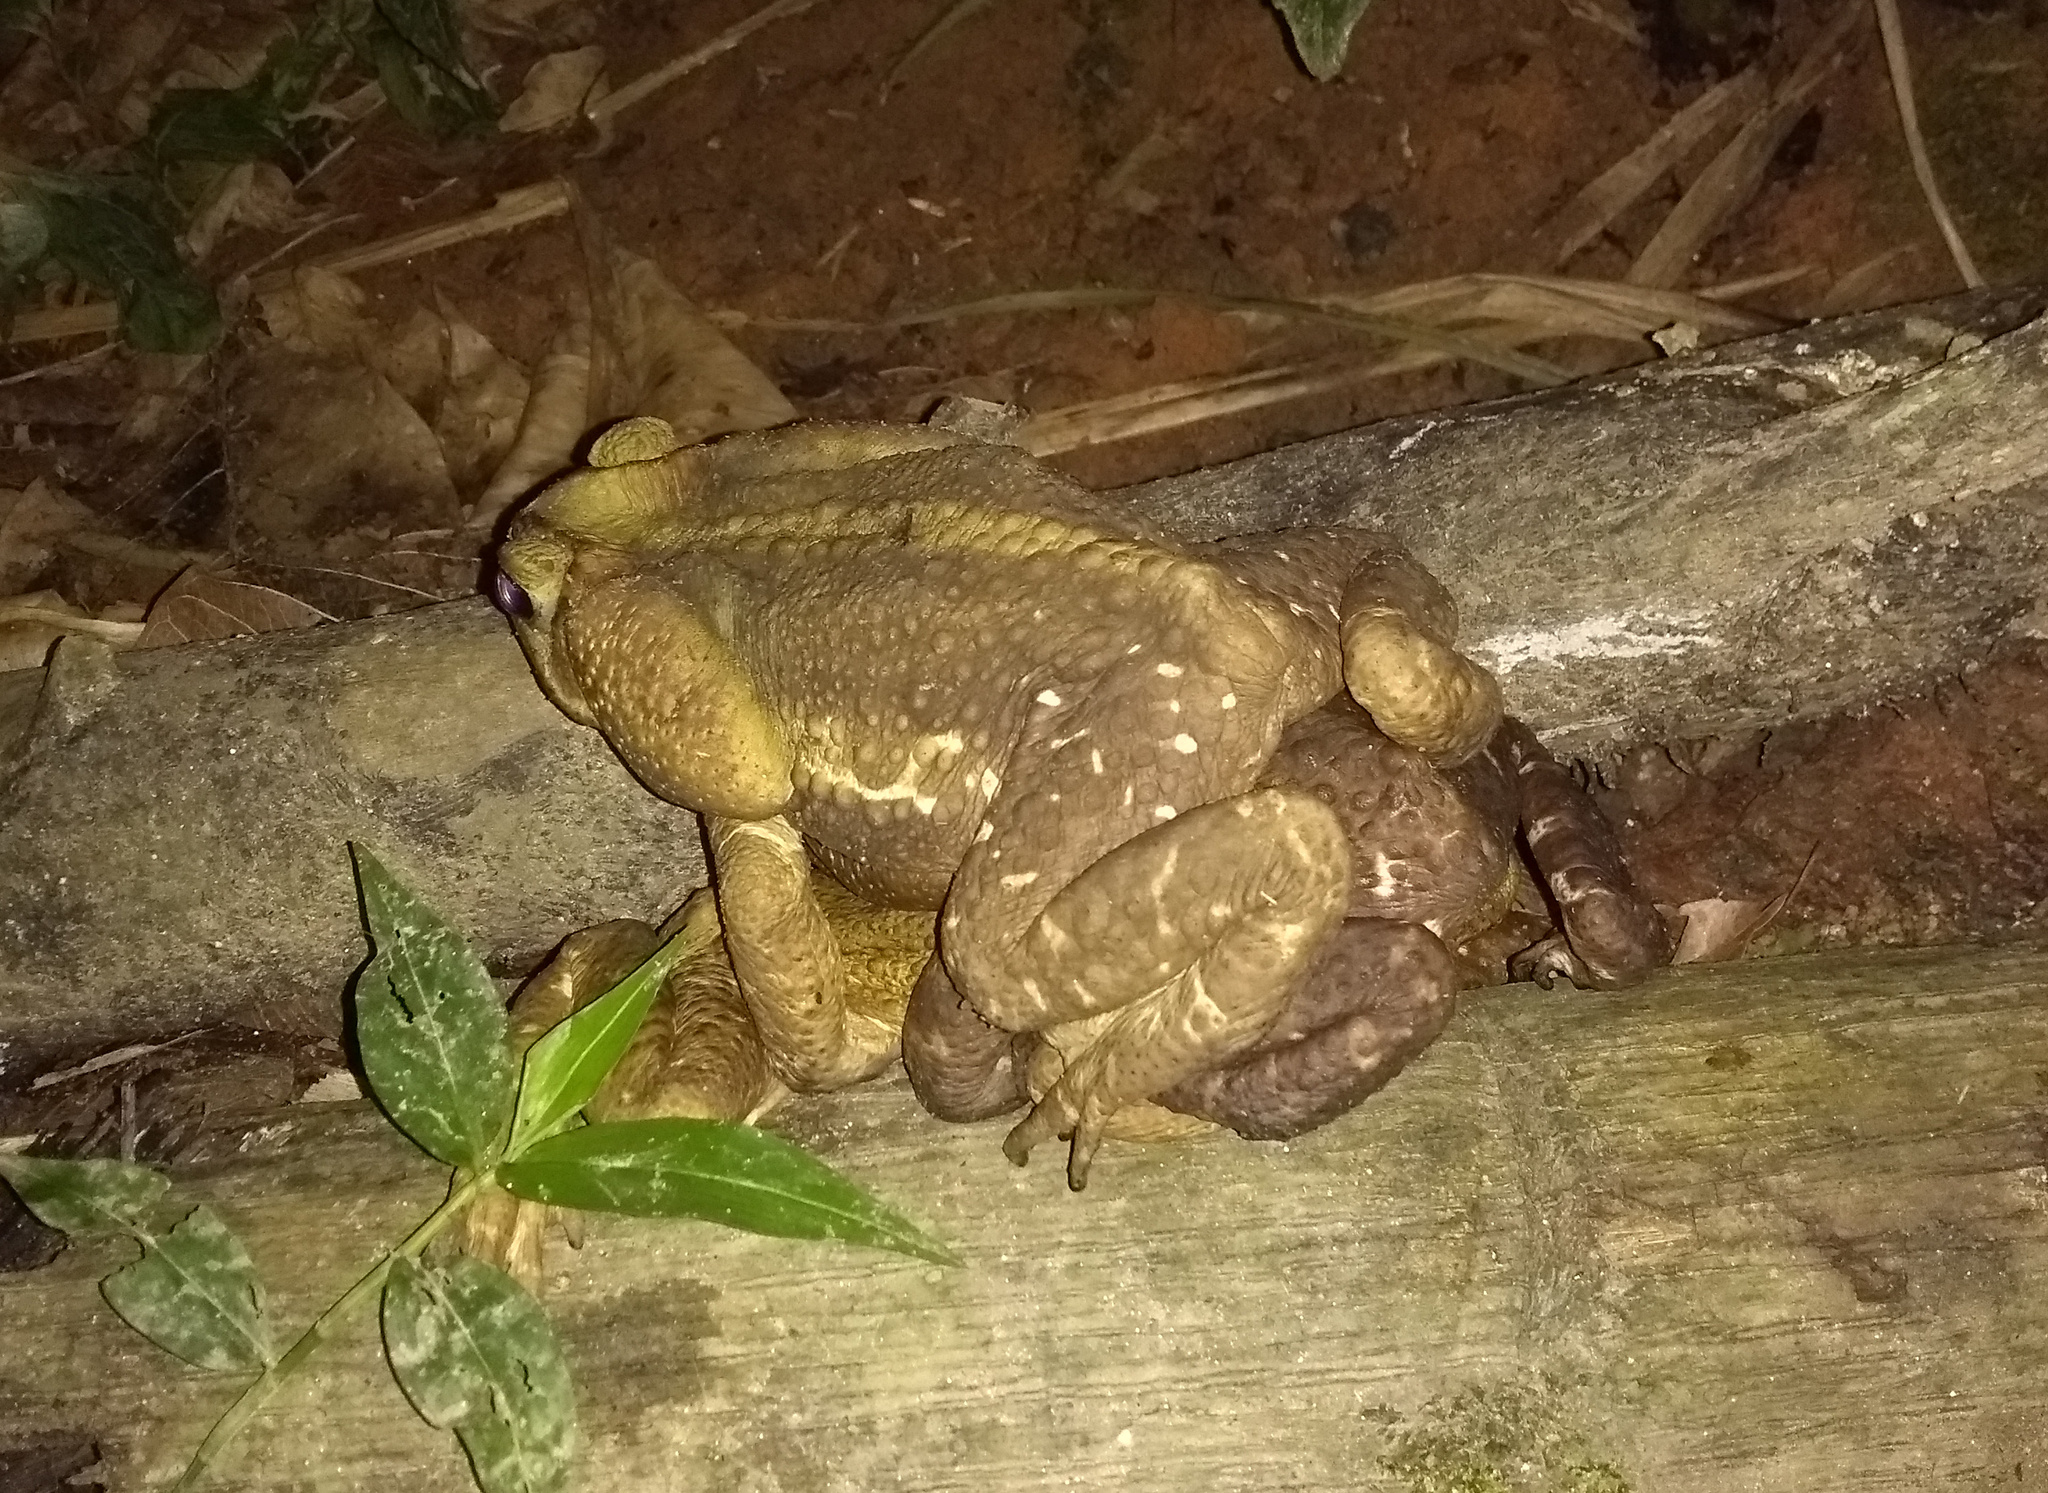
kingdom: Animalia
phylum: Chordata
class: Amphibia
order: Anura
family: Bufonidae
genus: Rhinella
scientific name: Rhinella icterica
